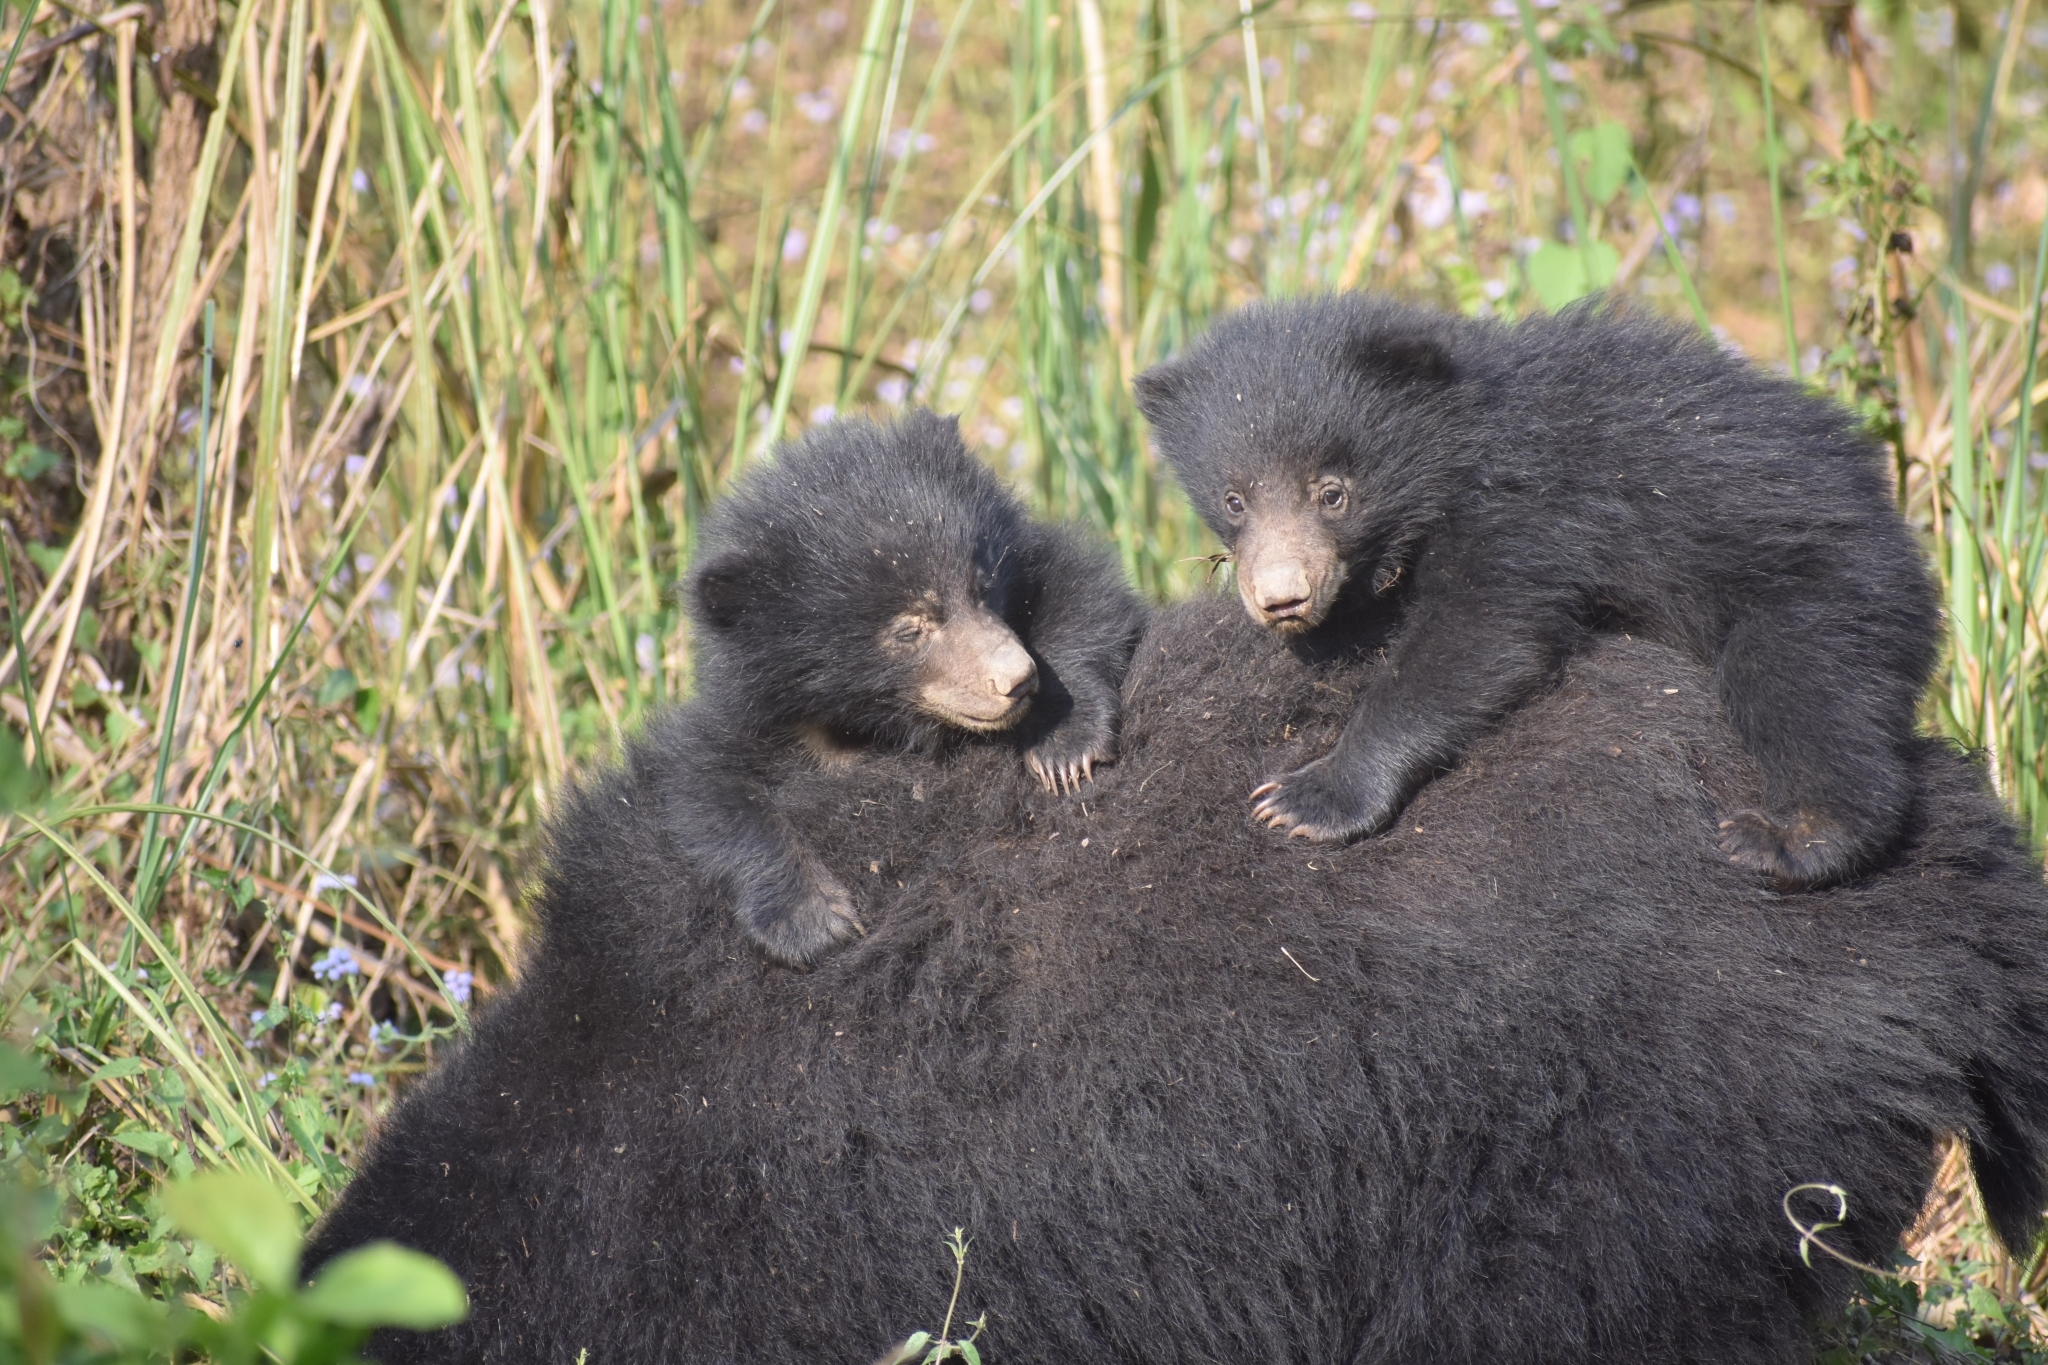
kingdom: Animalia
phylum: Chordata
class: Mammalia
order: Carnivora
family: Ursidae
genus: Melursus
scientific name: Melursus ursinus
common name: Sloth bear
